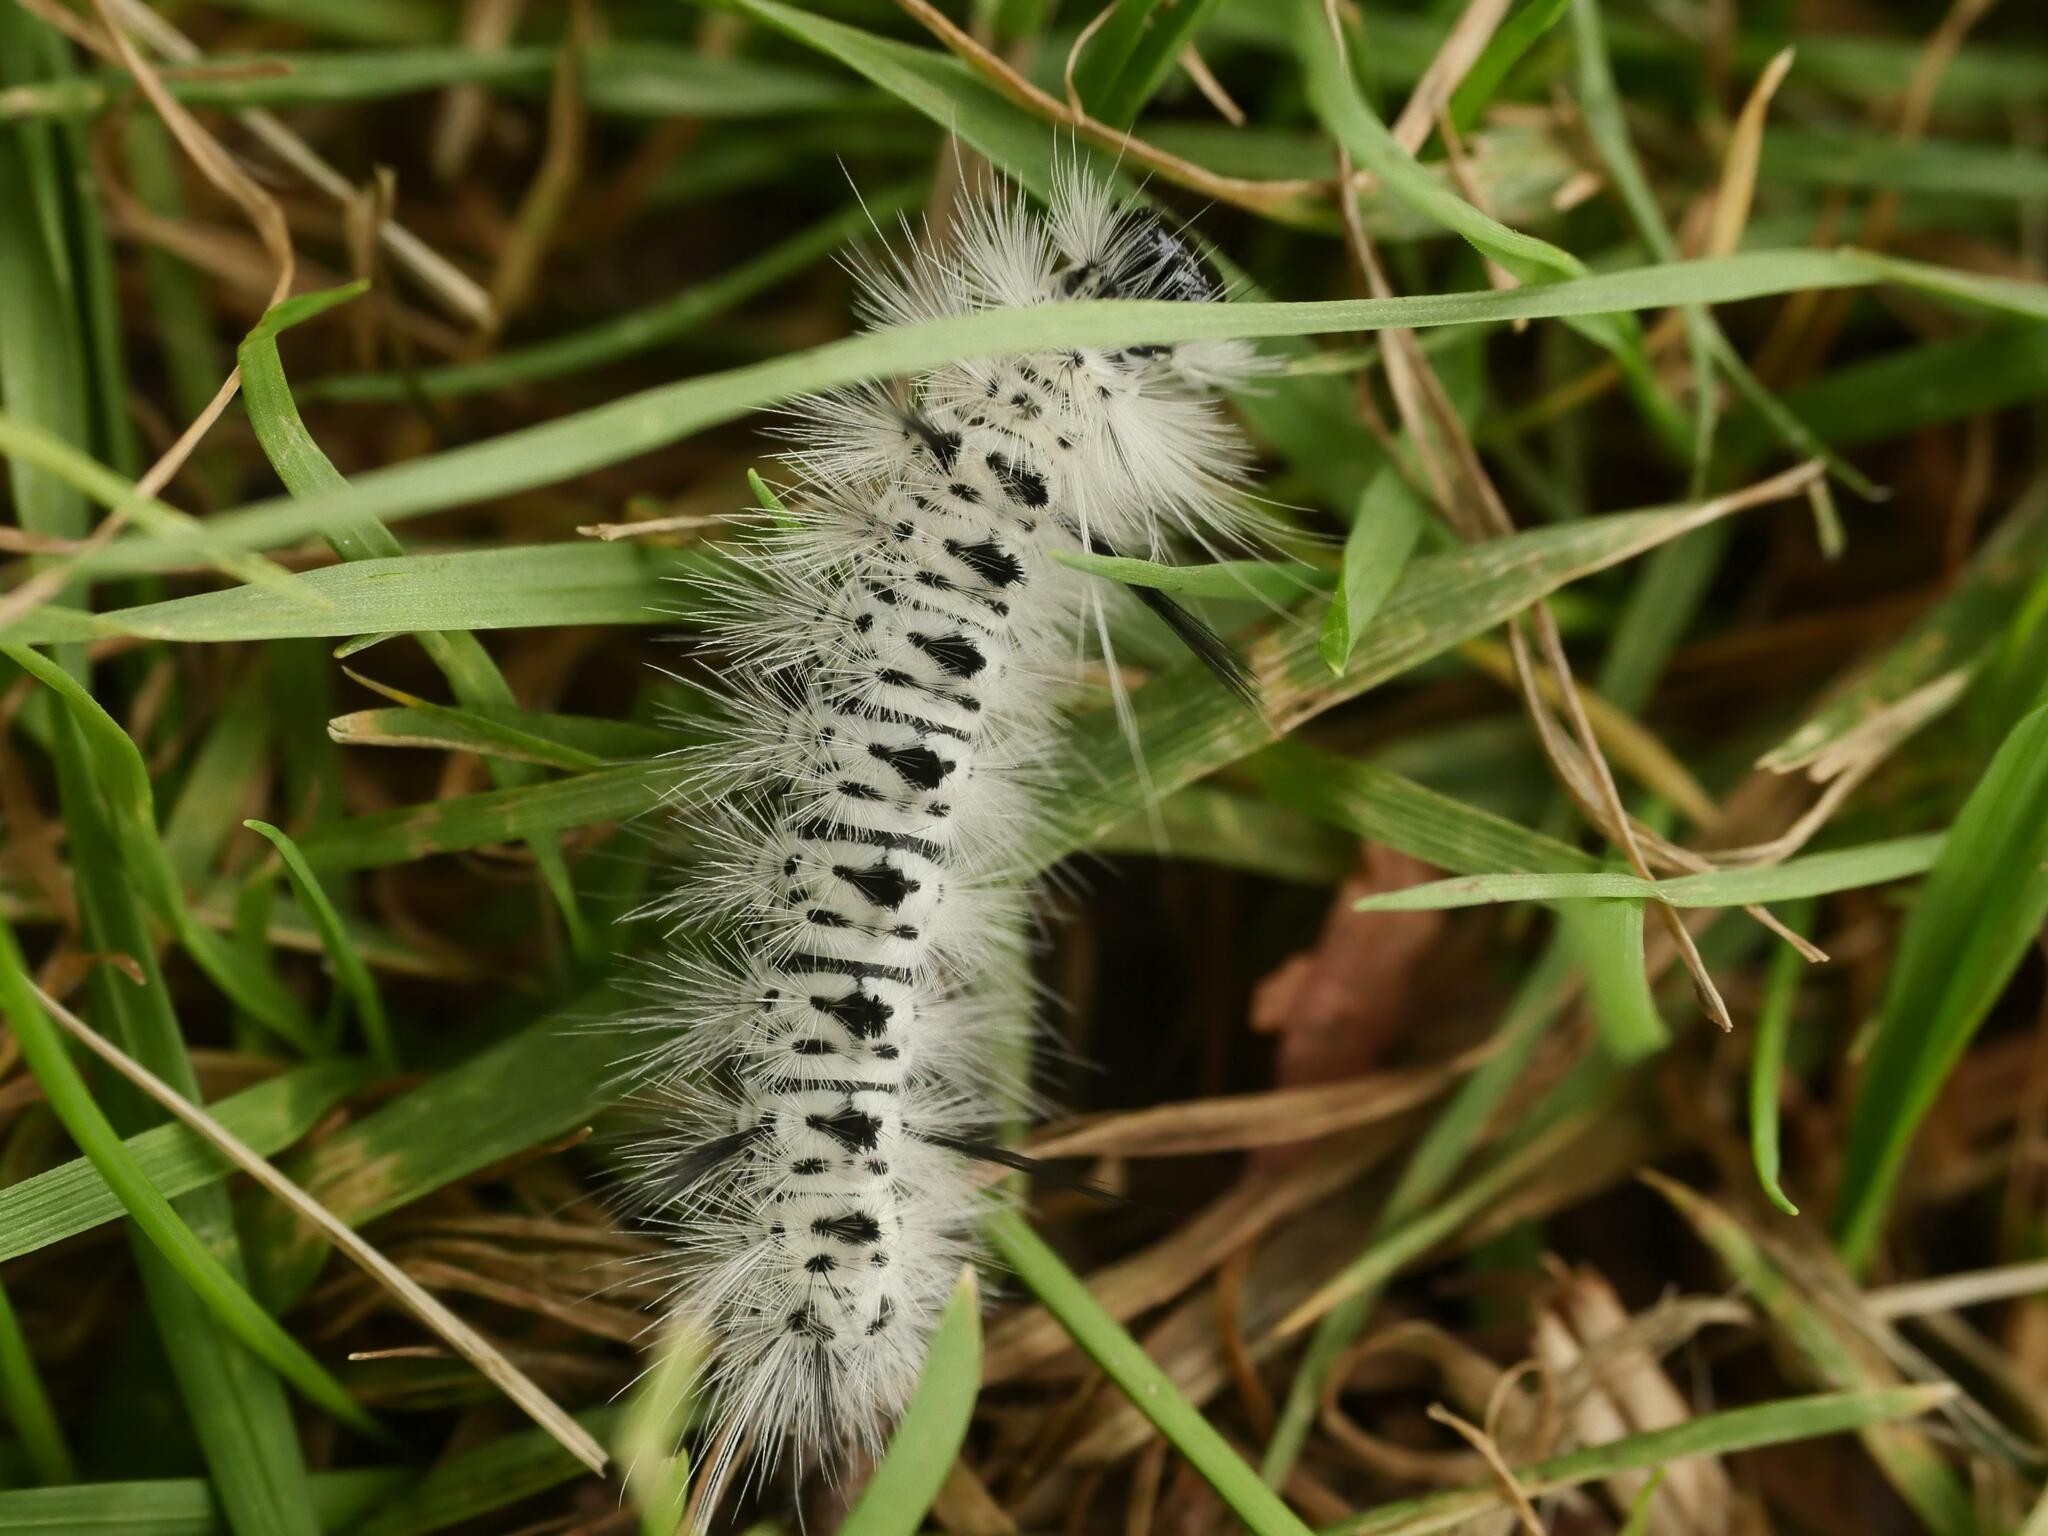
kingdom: Animalia
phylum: Arthropoda
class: Insecta
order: Lepidoptera
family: Erebidae
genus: Lophocampa
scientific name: Lophocampa caryae
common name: Hickory tussock moth
